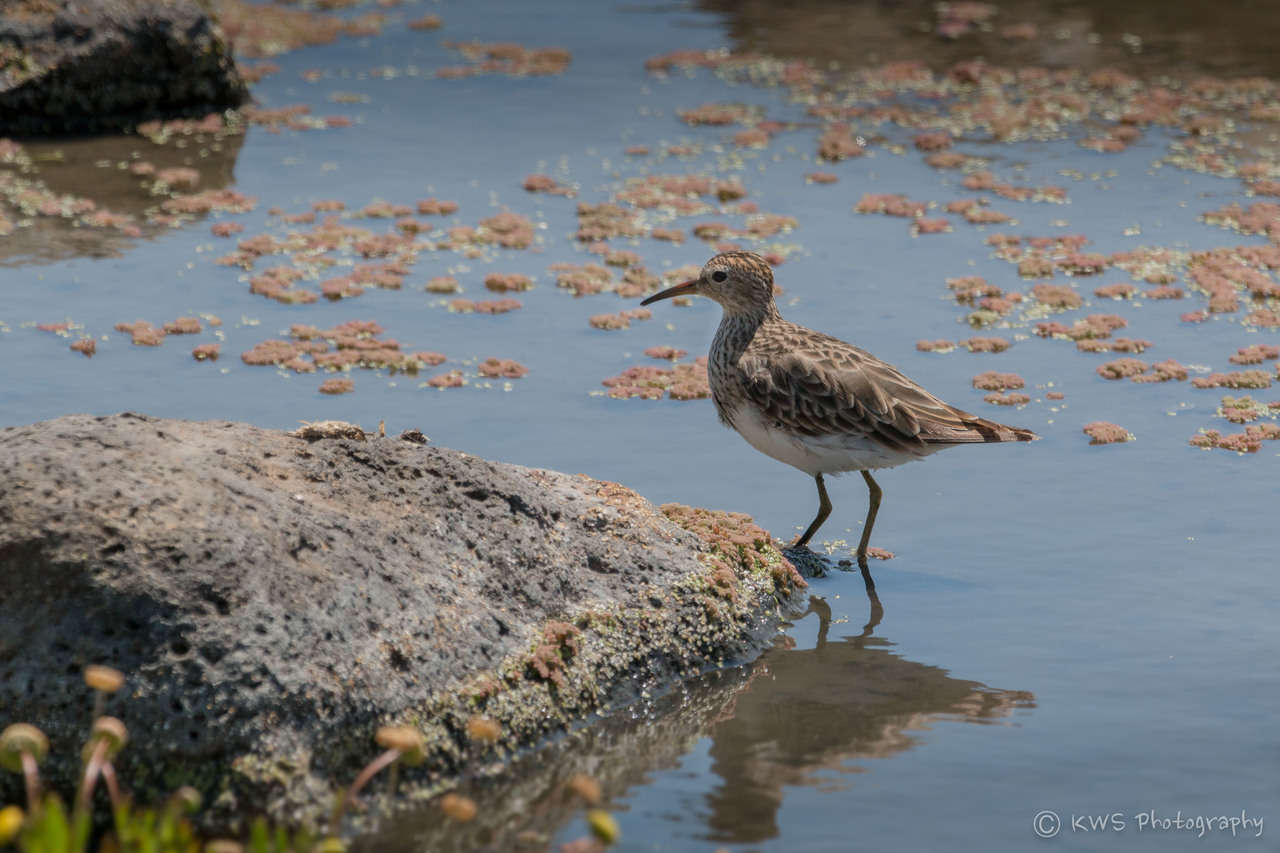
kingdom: Animalia
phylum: Chordata
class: Aves
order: Charadriiformes
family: Scolopacidae
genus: Calidris
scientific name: Calidris melanotos
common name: Pectoral sandpiper
